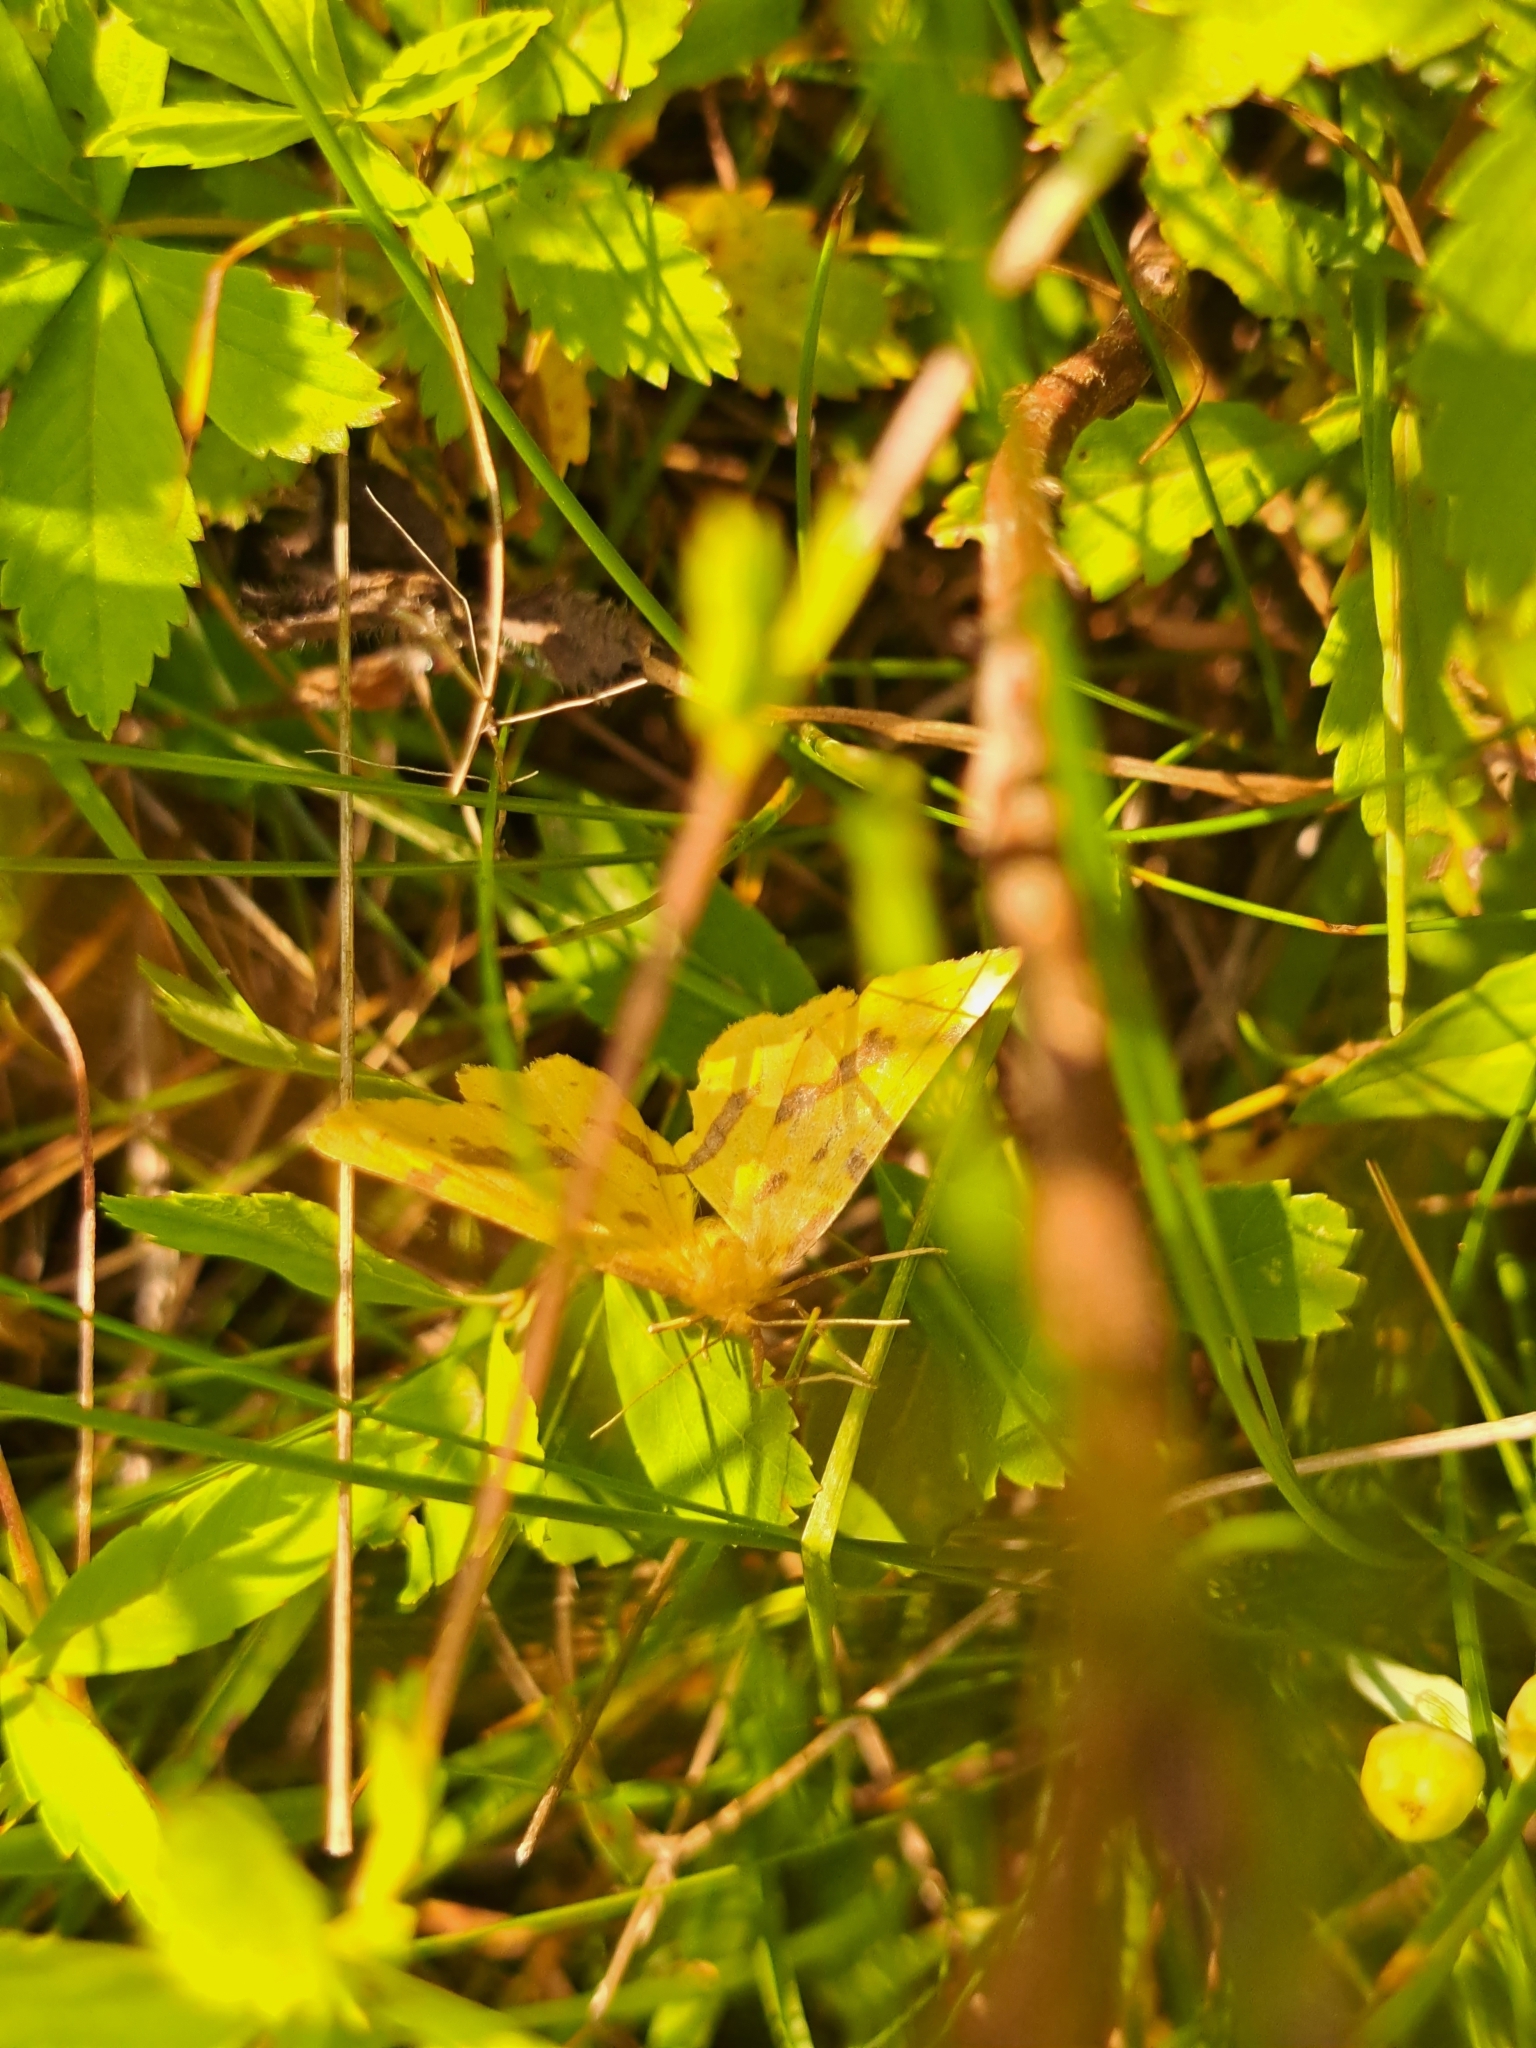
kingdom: Animalia
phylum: Arthropoda
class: Insecta
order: Lepidoptera
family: Geometridae
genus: Xanthotype
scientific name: Xanthotype
